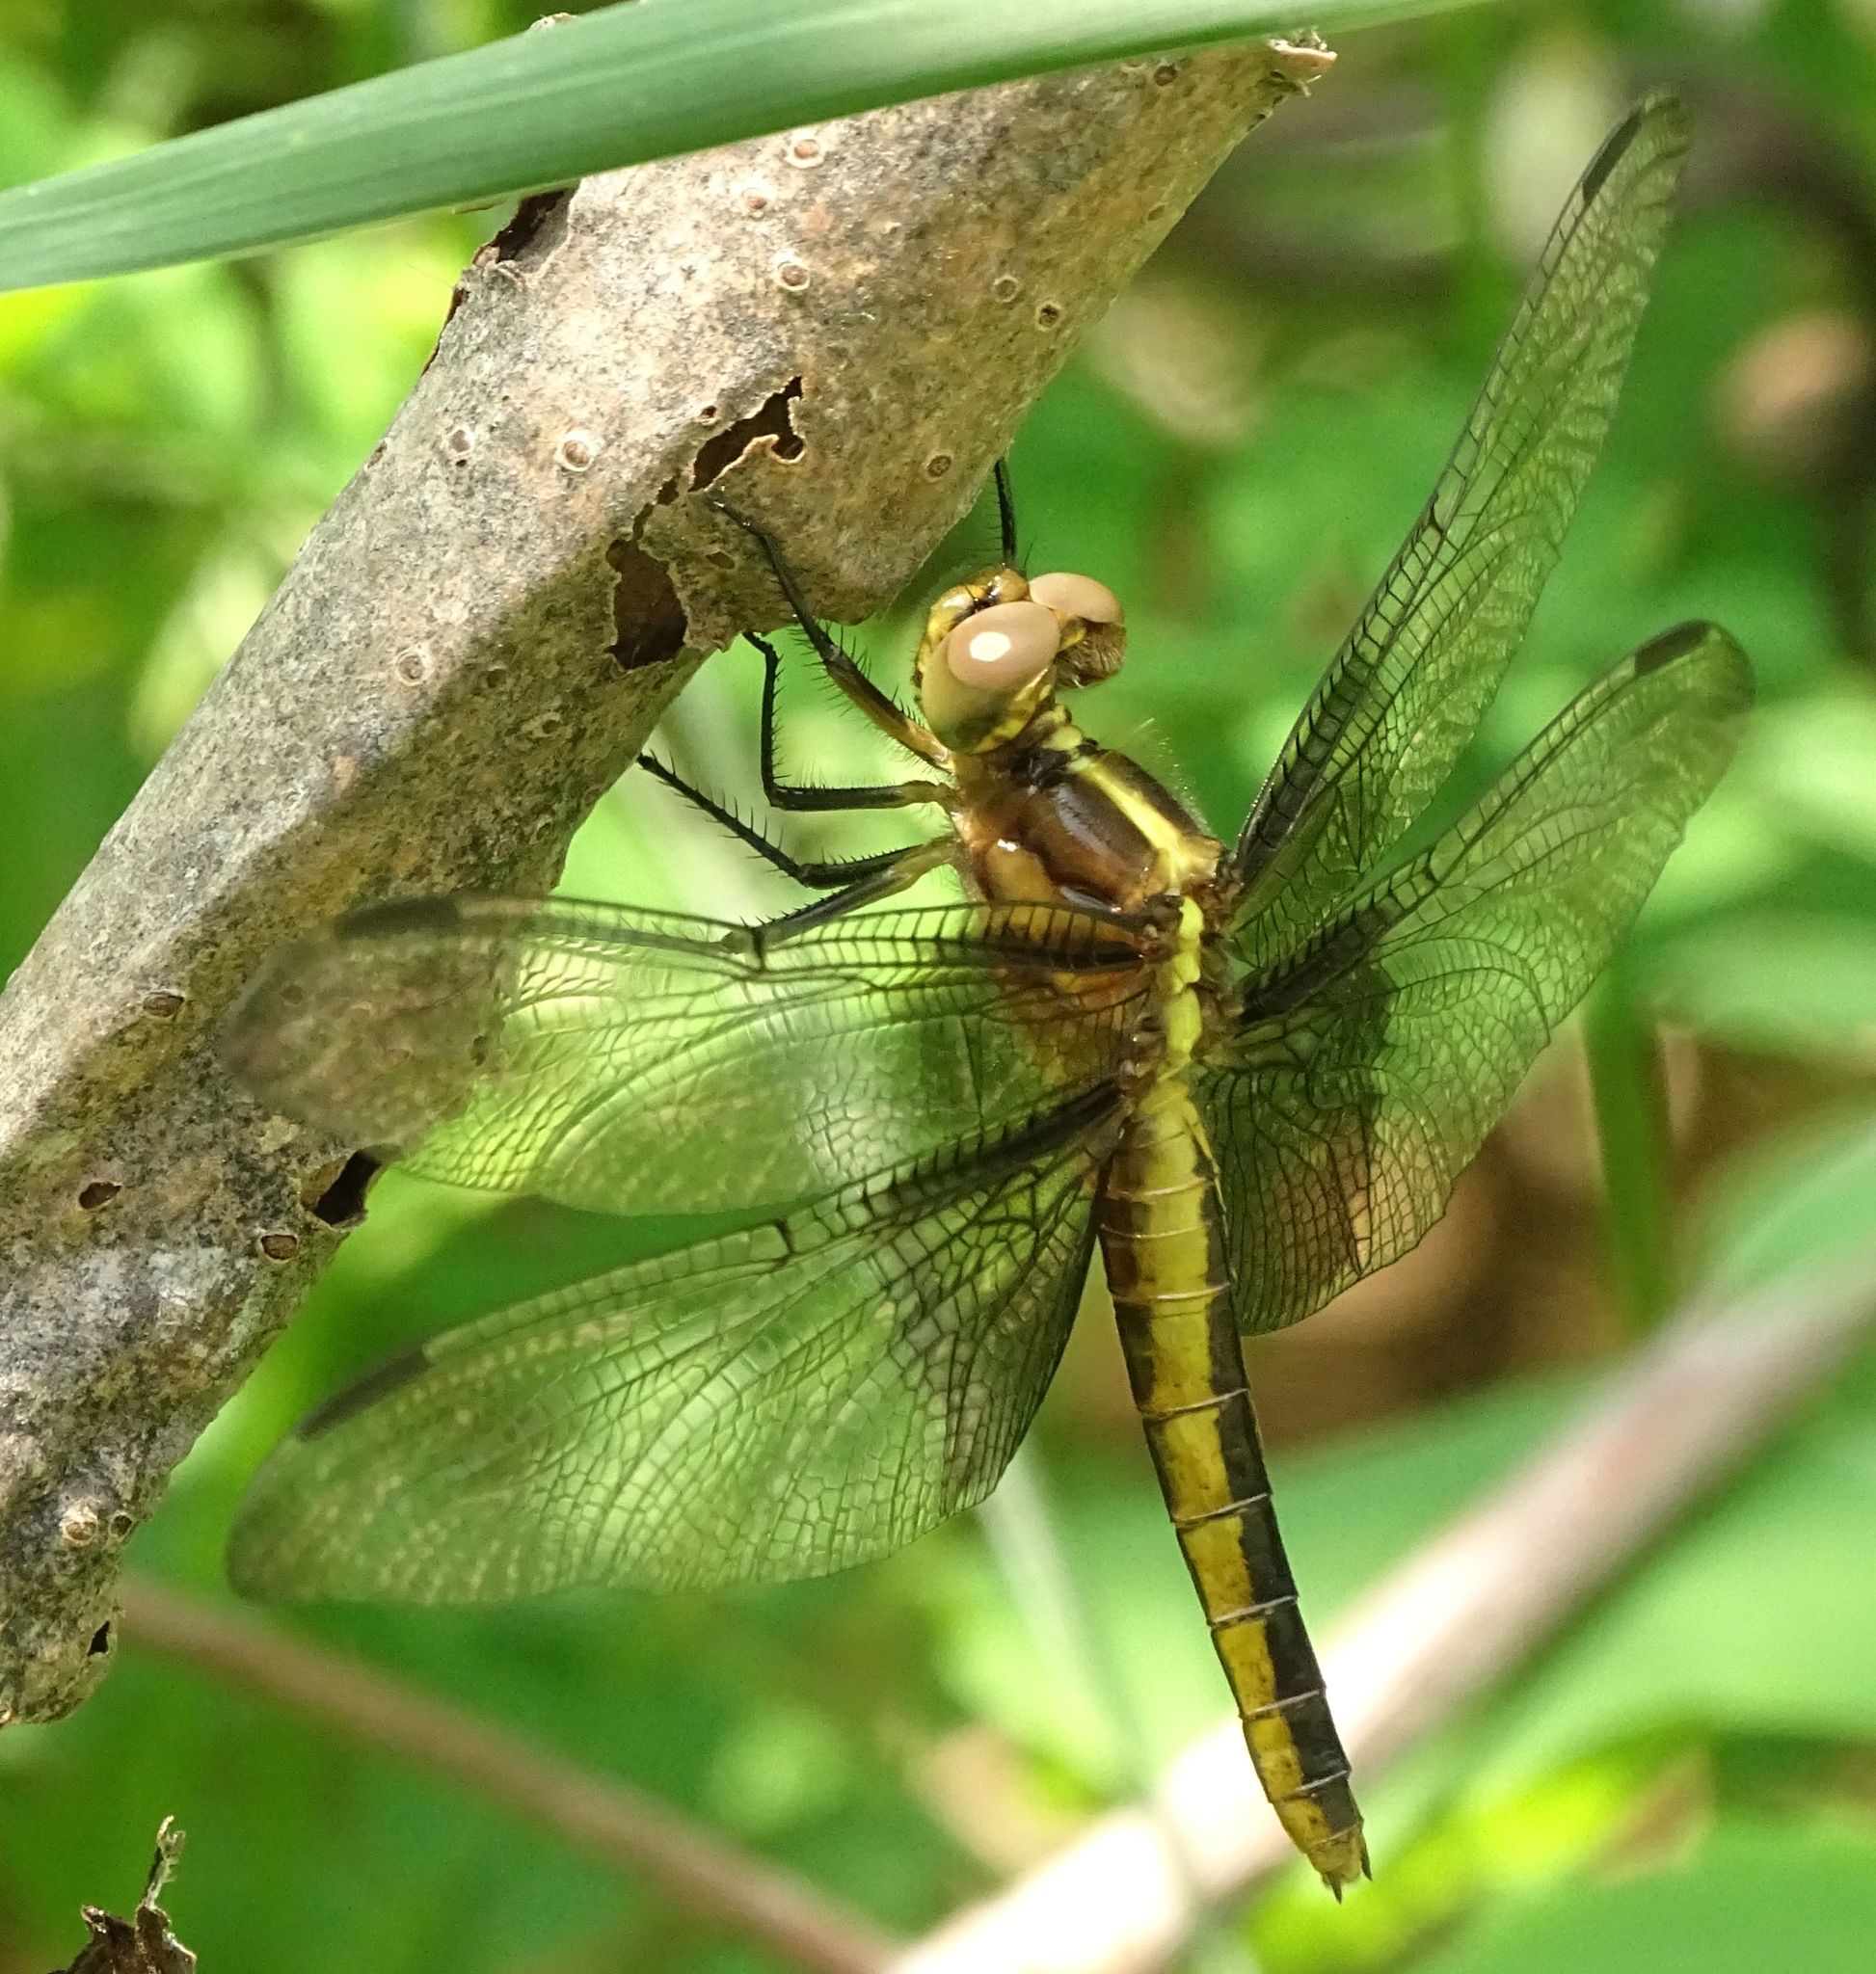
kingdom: Animalia
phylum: Arthropoda
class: Insecta
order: Odonata
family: Libellulidae
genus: Libellula
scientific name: Libellula luctuosa
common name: Widow skimmer
